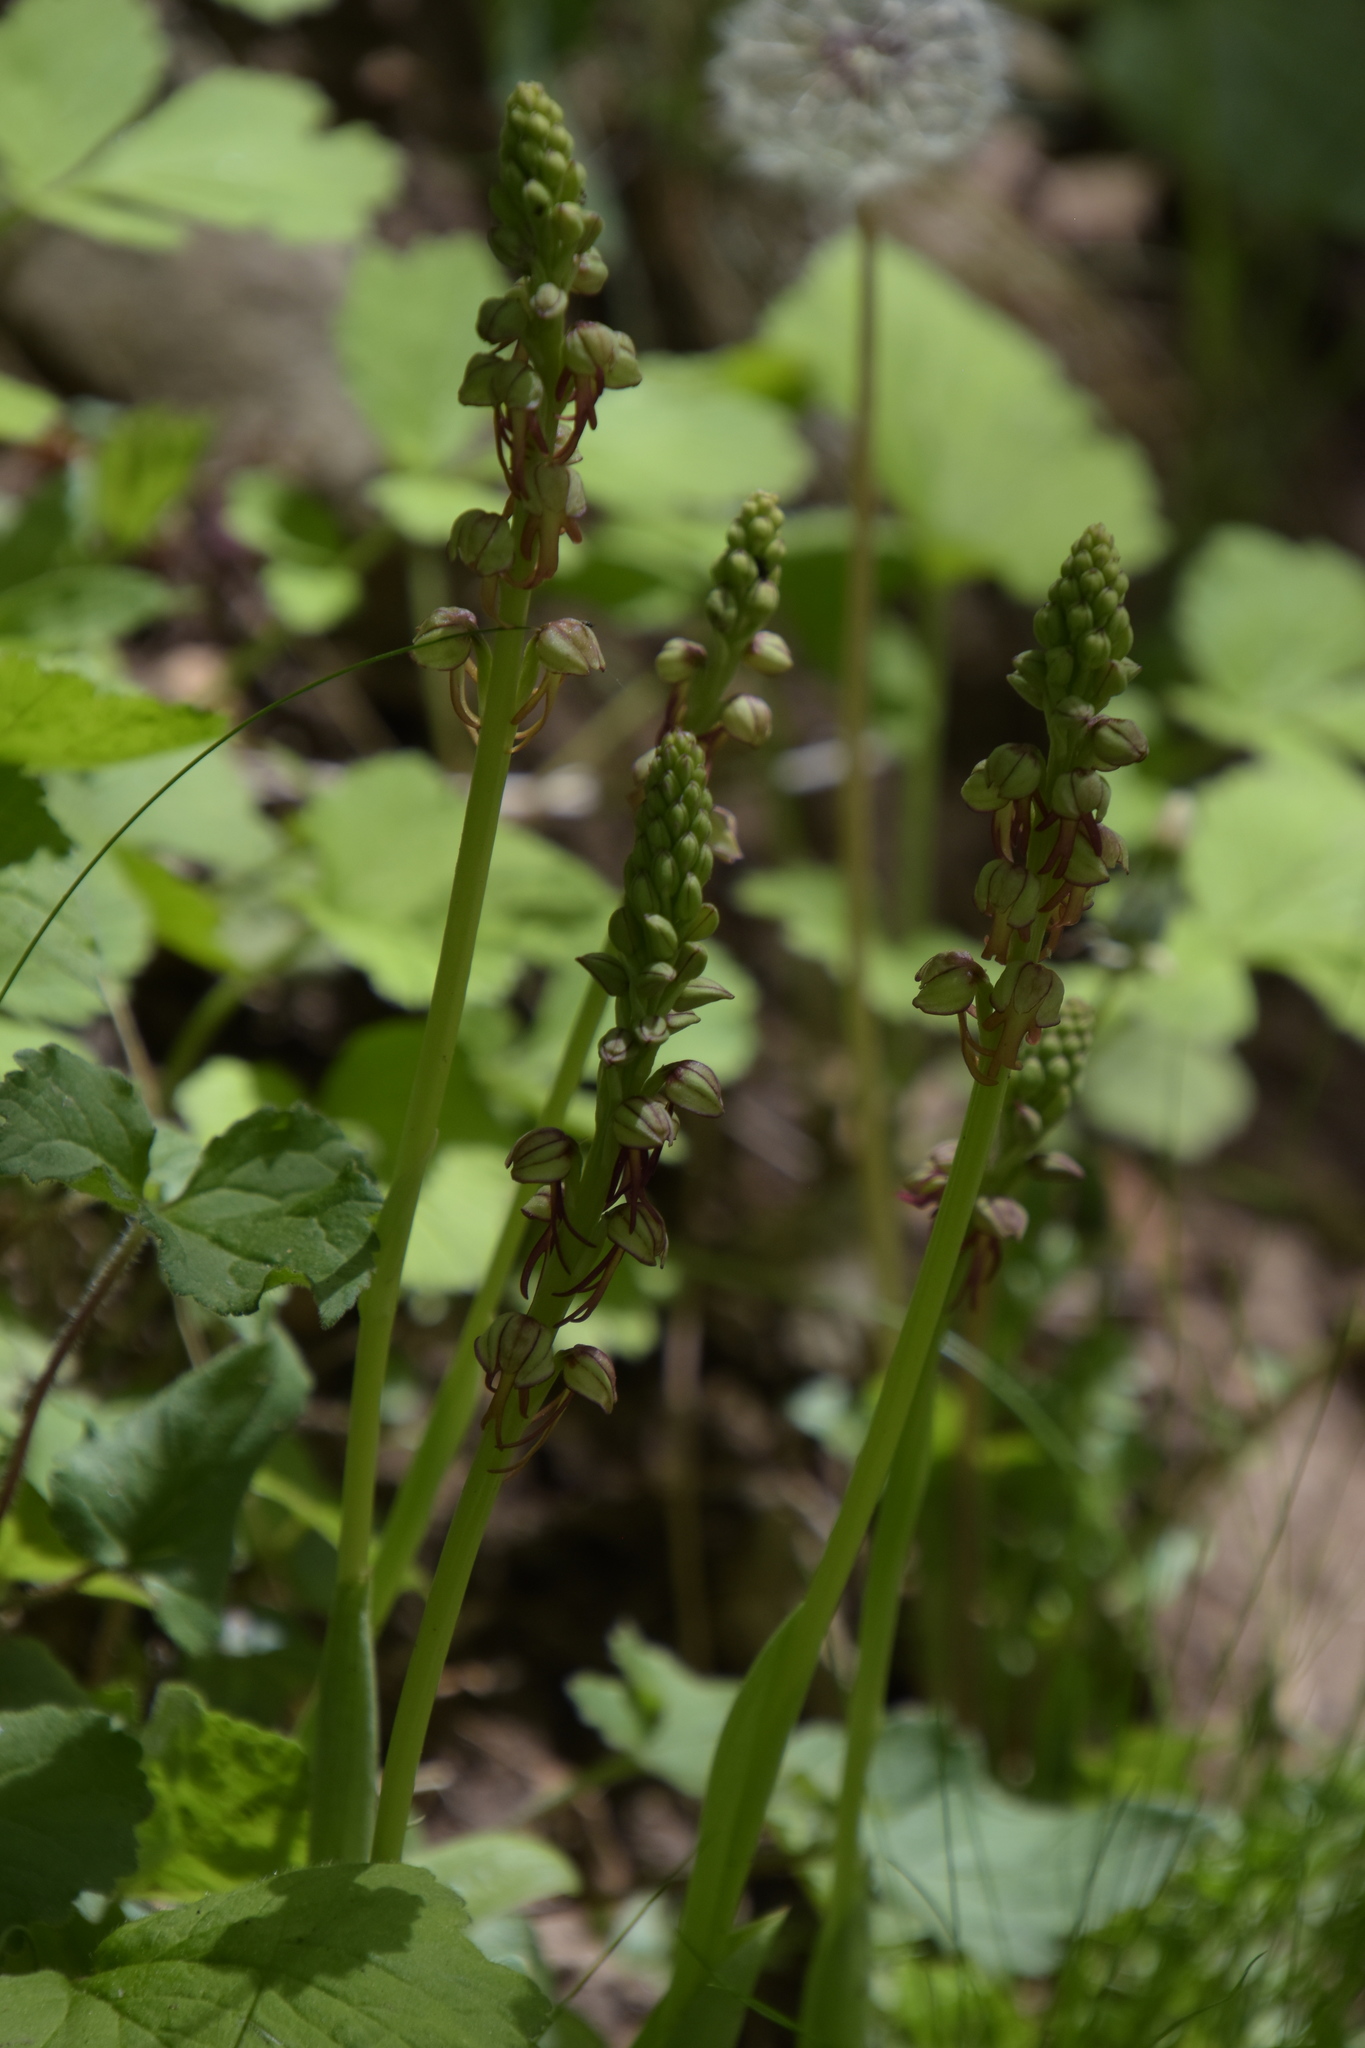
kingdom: Plantae
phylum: Tracheophyta
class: Liliopsida
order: Asparagales
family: Orchidaceae
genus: Orchis
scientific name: Orchis anthropophora
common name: Man orchid
